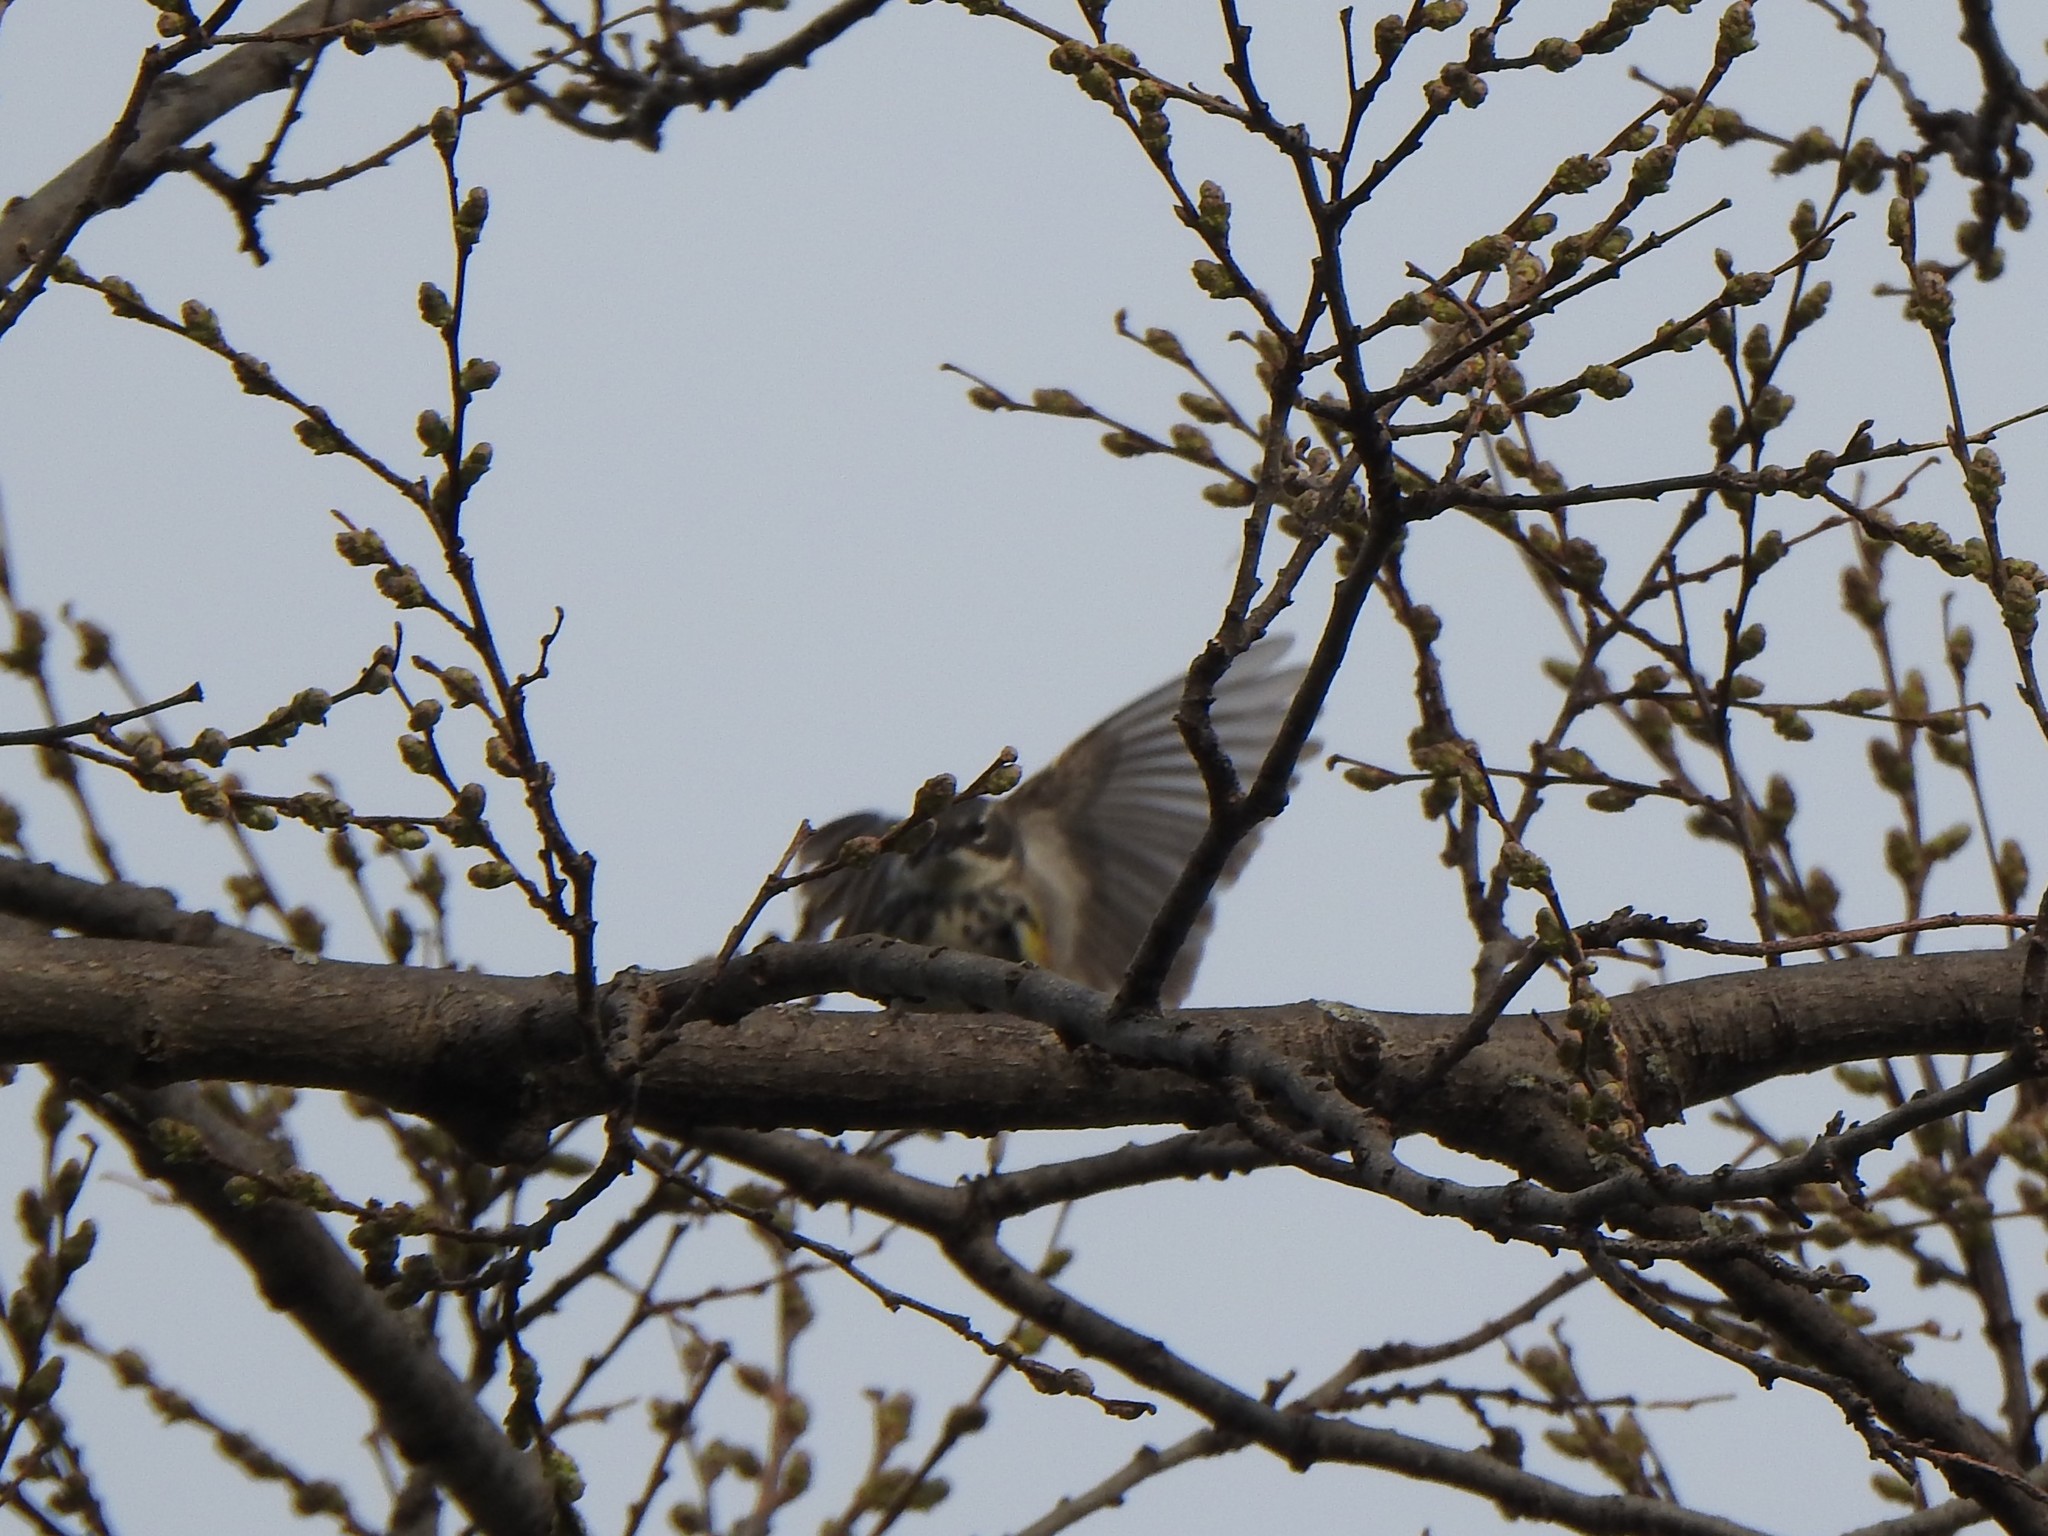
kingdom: Animalia
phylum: Chordata
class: Aves
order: Passeriformes
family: Parulidae
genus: Setophaga
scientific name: Setophaga coronata
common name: Myrtle warbler
